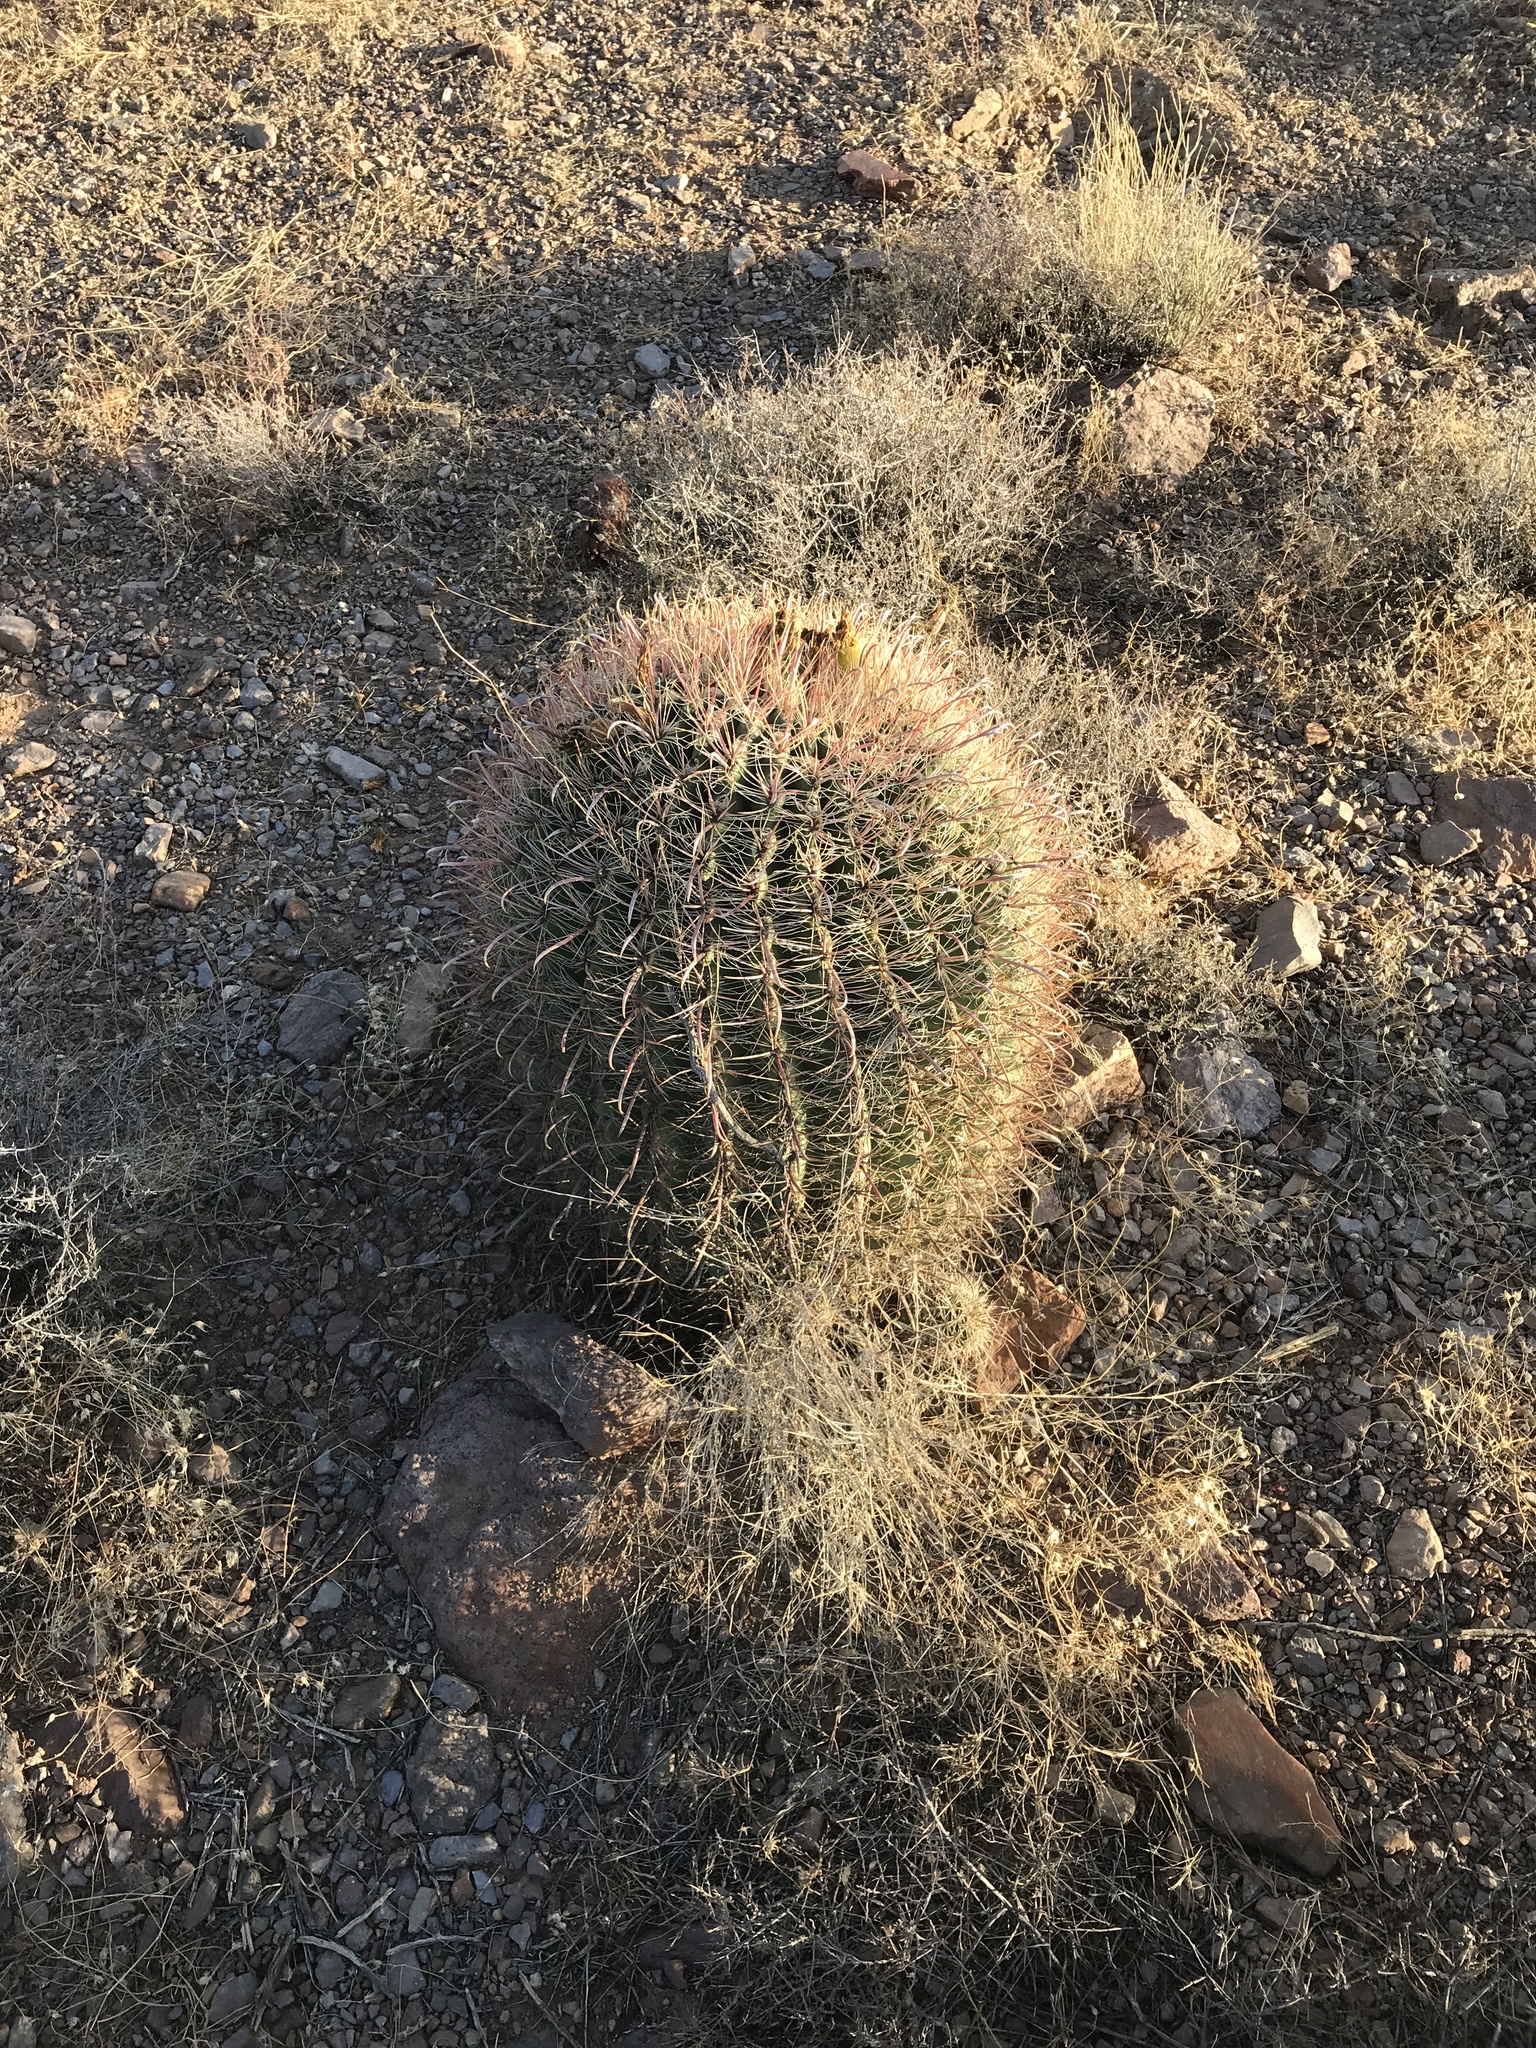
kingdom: Plantae
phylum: Tracheophyta
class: Magnoliopsida
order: Caryophyllales
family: Cactaceae
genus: Ferocactus
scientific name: Ferocactus wislizeni
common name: Candy barrel cactus
